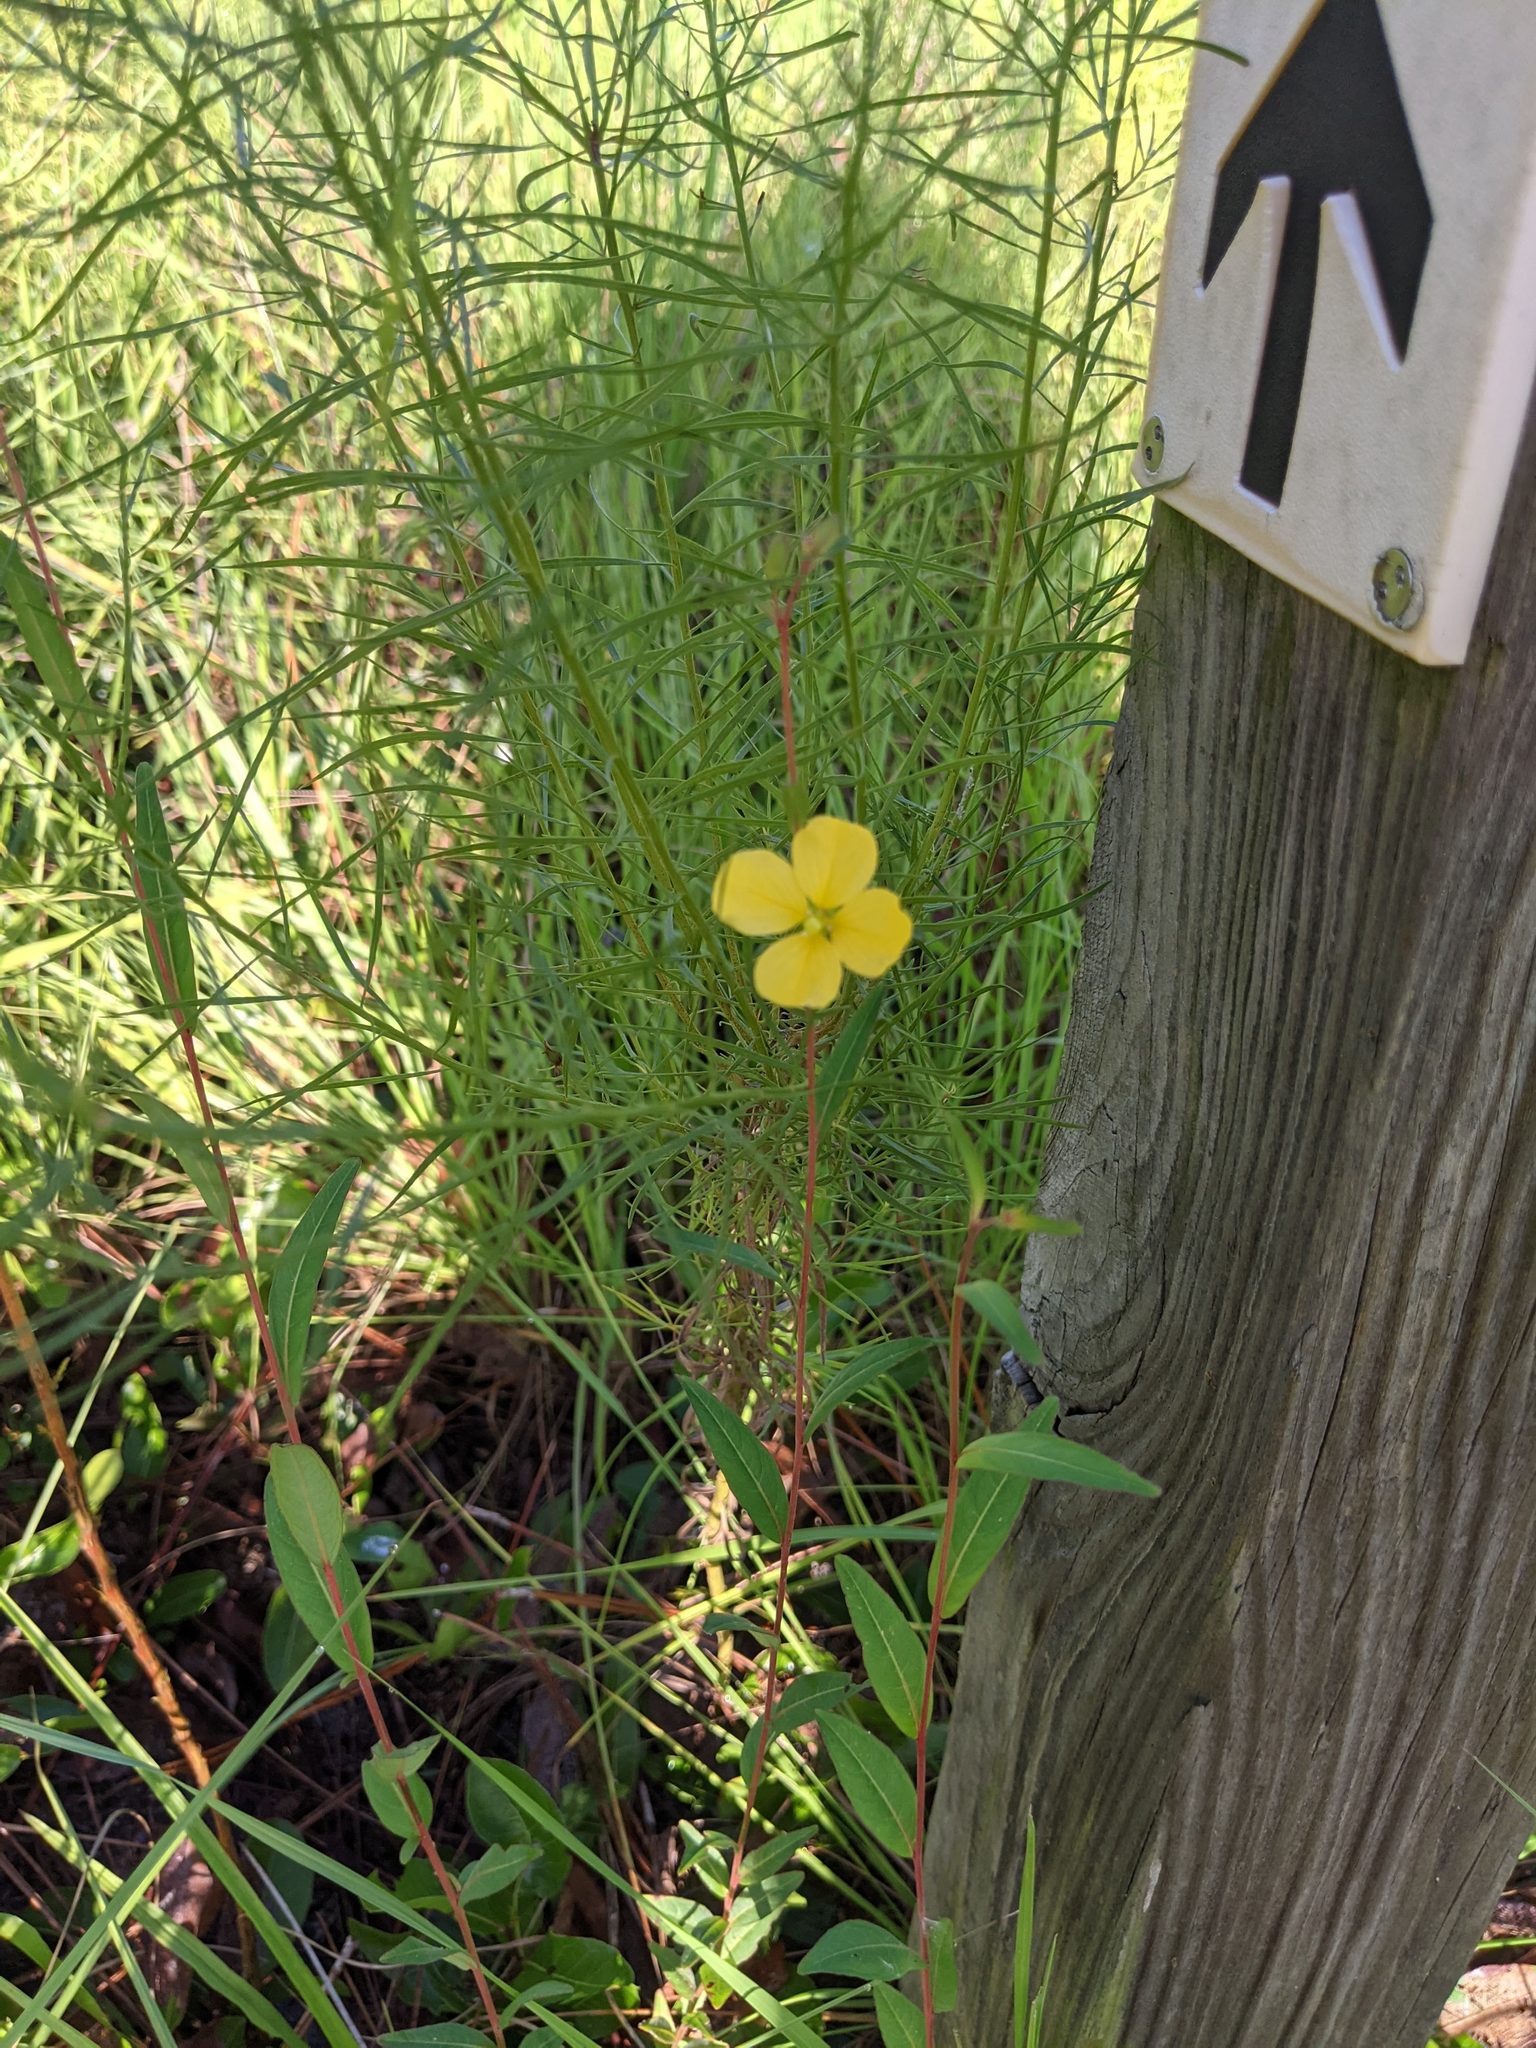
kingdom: Plantae
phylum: Tracheophyta
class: Magnoliopsida
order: Myrtales
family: Onagraceae
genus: Ludwigia
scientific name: Ludwigia maritima
